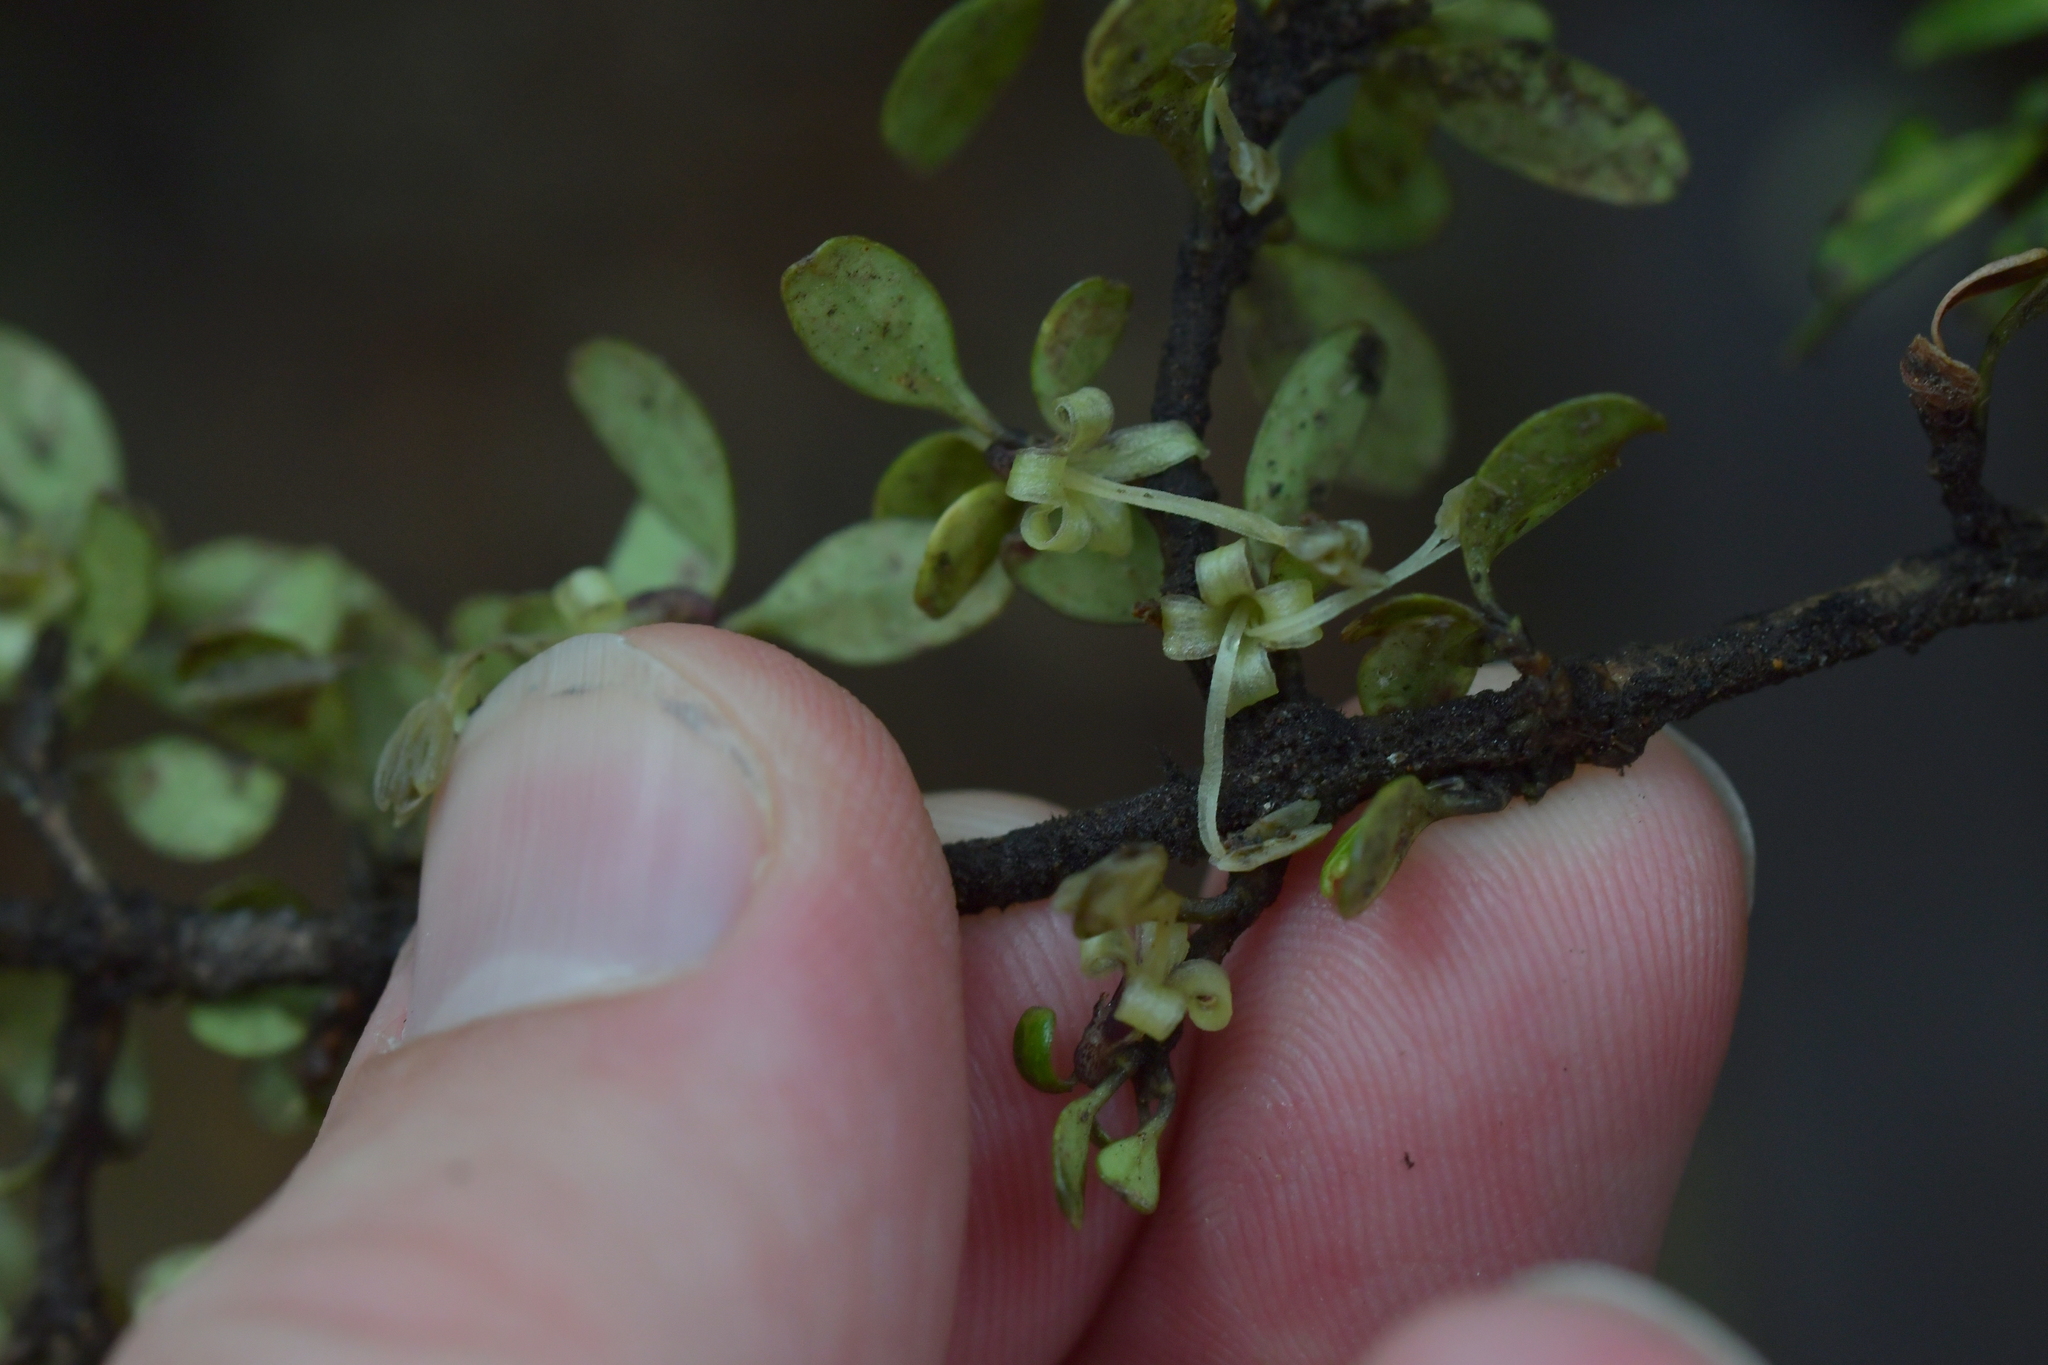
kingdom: Plantae
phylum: Tracheophyta
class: Magnoliopsida
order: Gentianales
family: Rubiaceae
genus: Coprosma
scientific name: Coprosma colensoi
